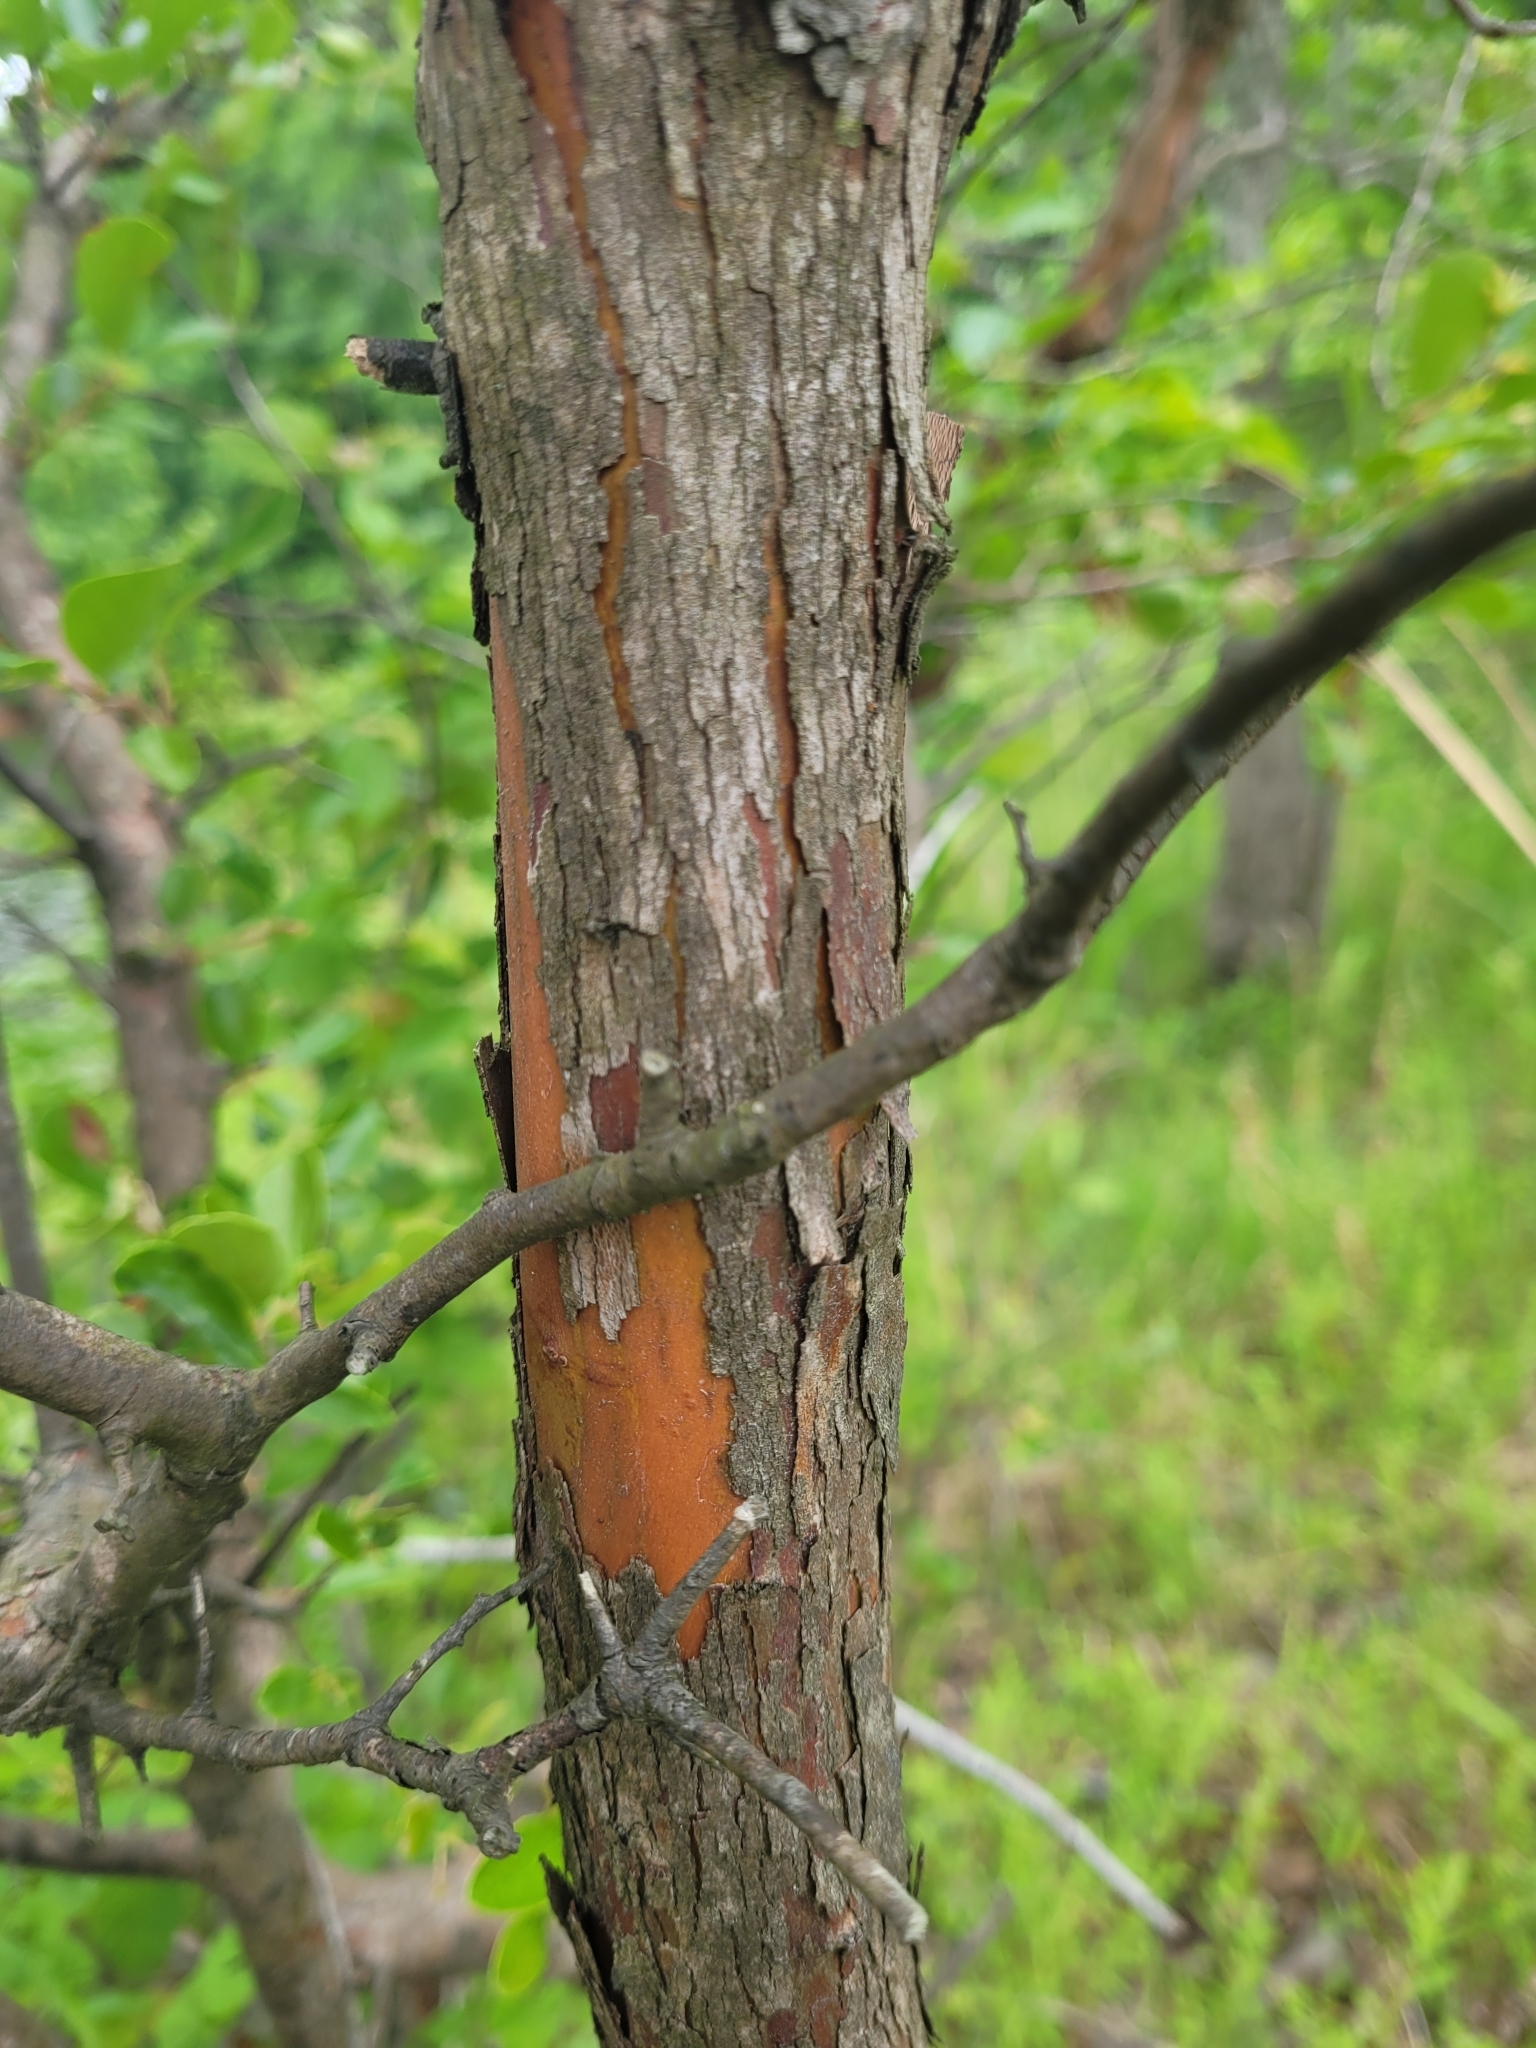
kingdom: Plantae
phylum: Tracheophyta
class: Magnoliopsida
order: Ericales
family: Ericaceae
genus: Vaccinium
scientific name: Vaccinium arboreum
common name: Farkleberry
